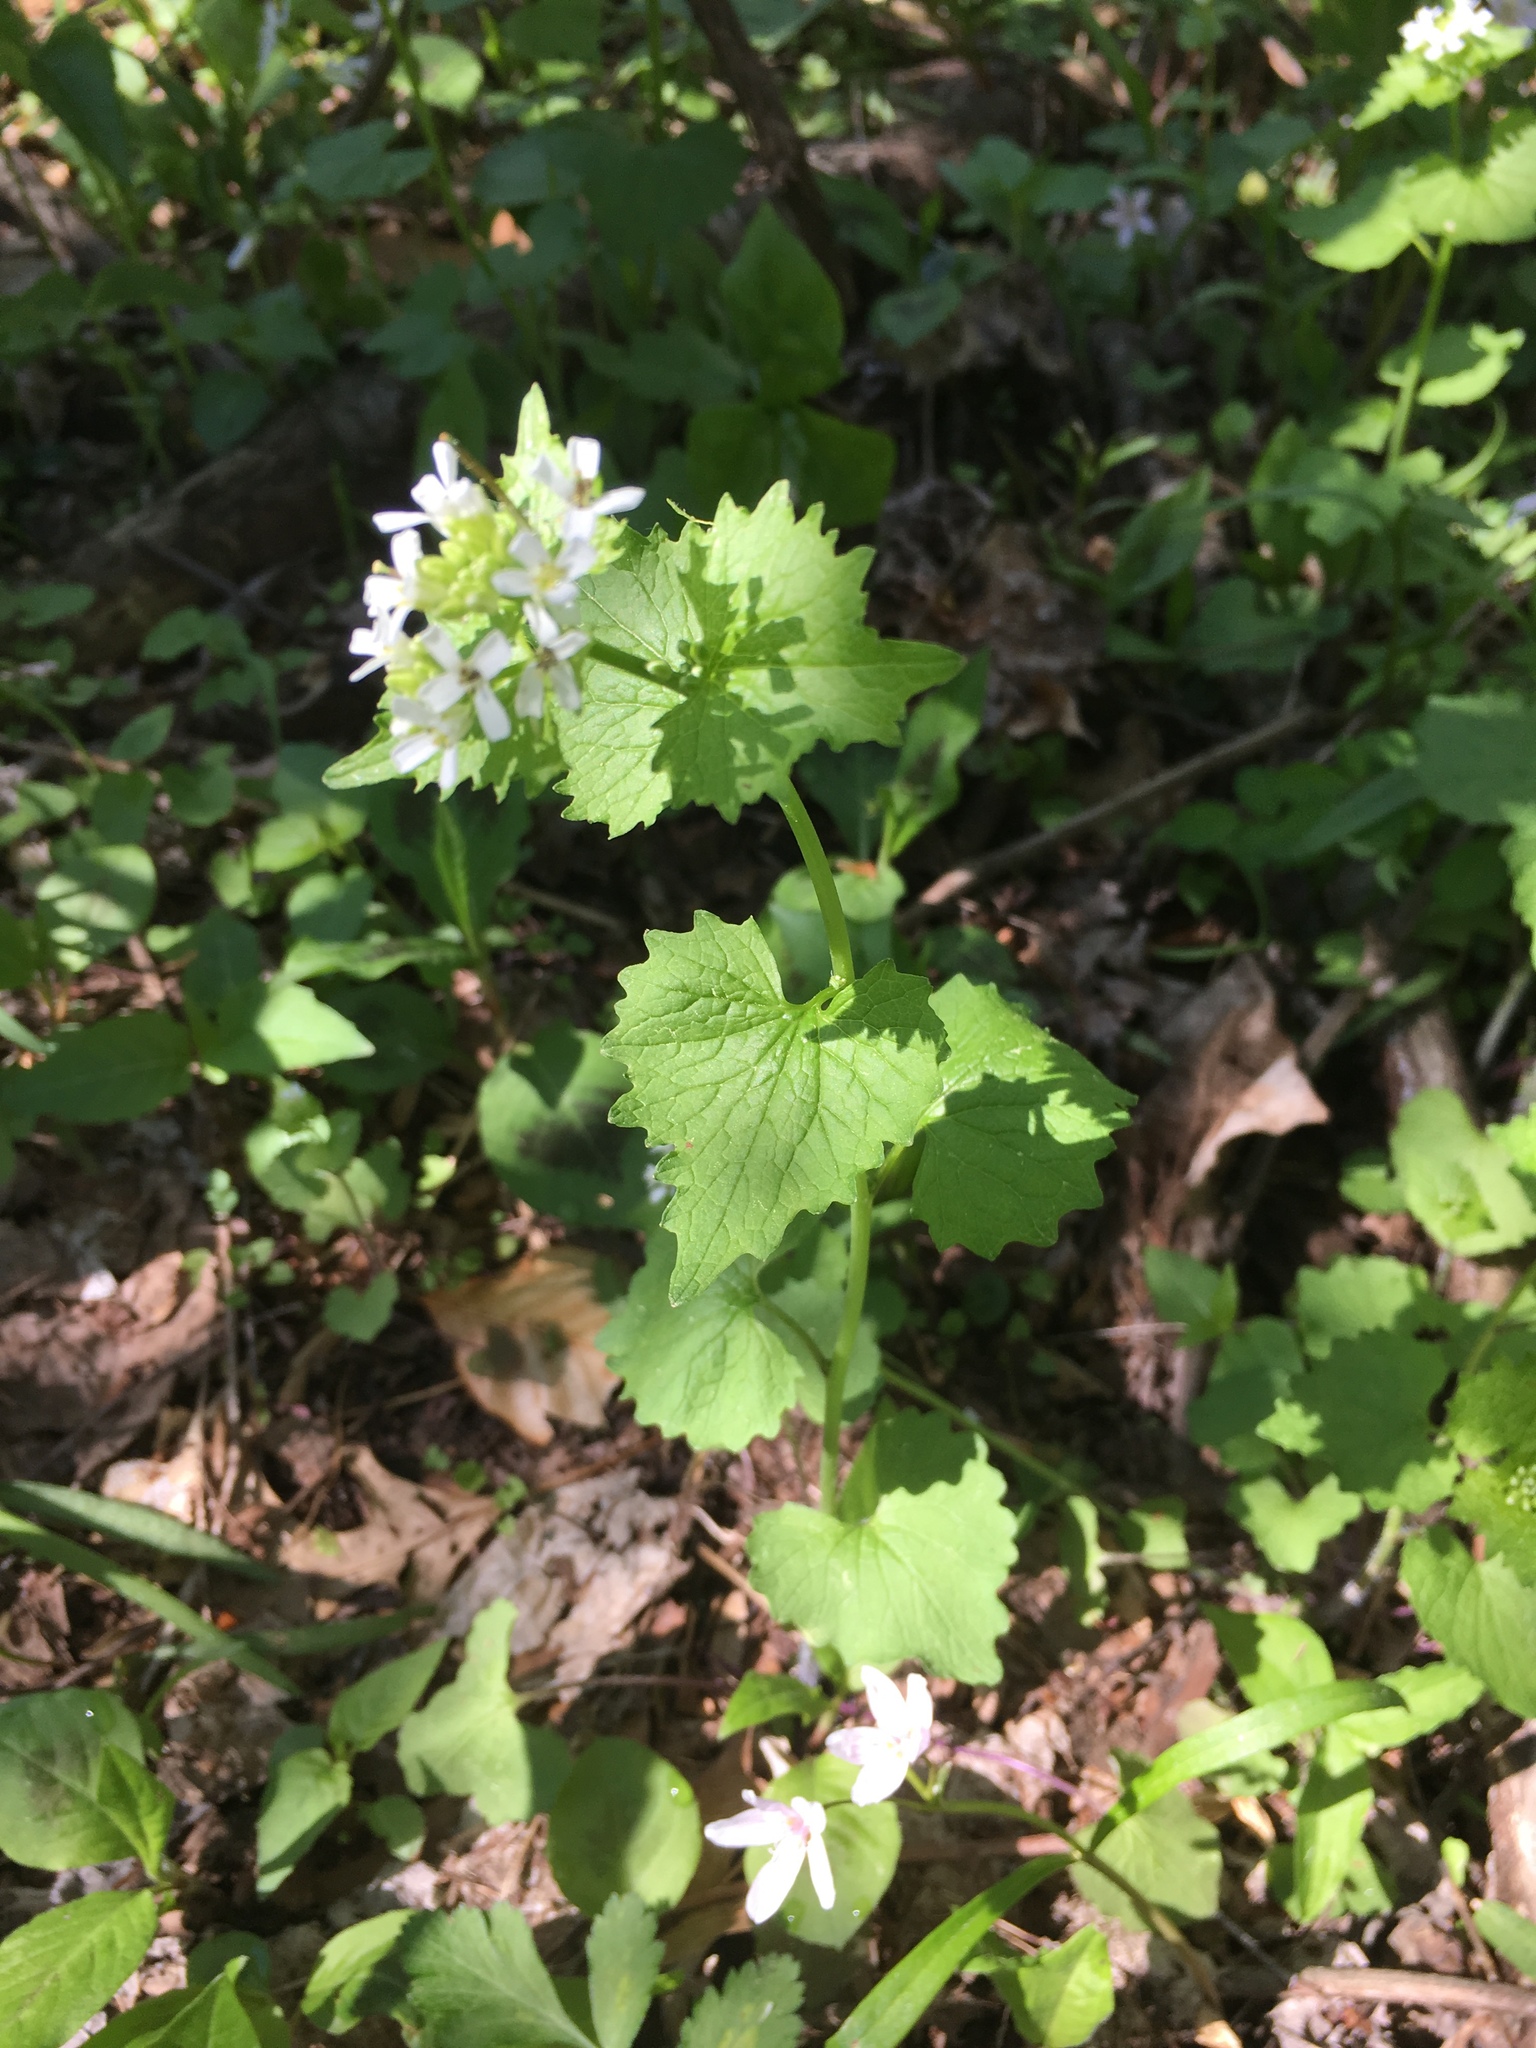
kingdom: Plantae
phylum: Tracheophyta
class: Magnoliopsida
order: Brassicales
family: Brassicaceae
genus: Alliaria
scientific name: Alliaria petiolata
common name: Garlic mustard
